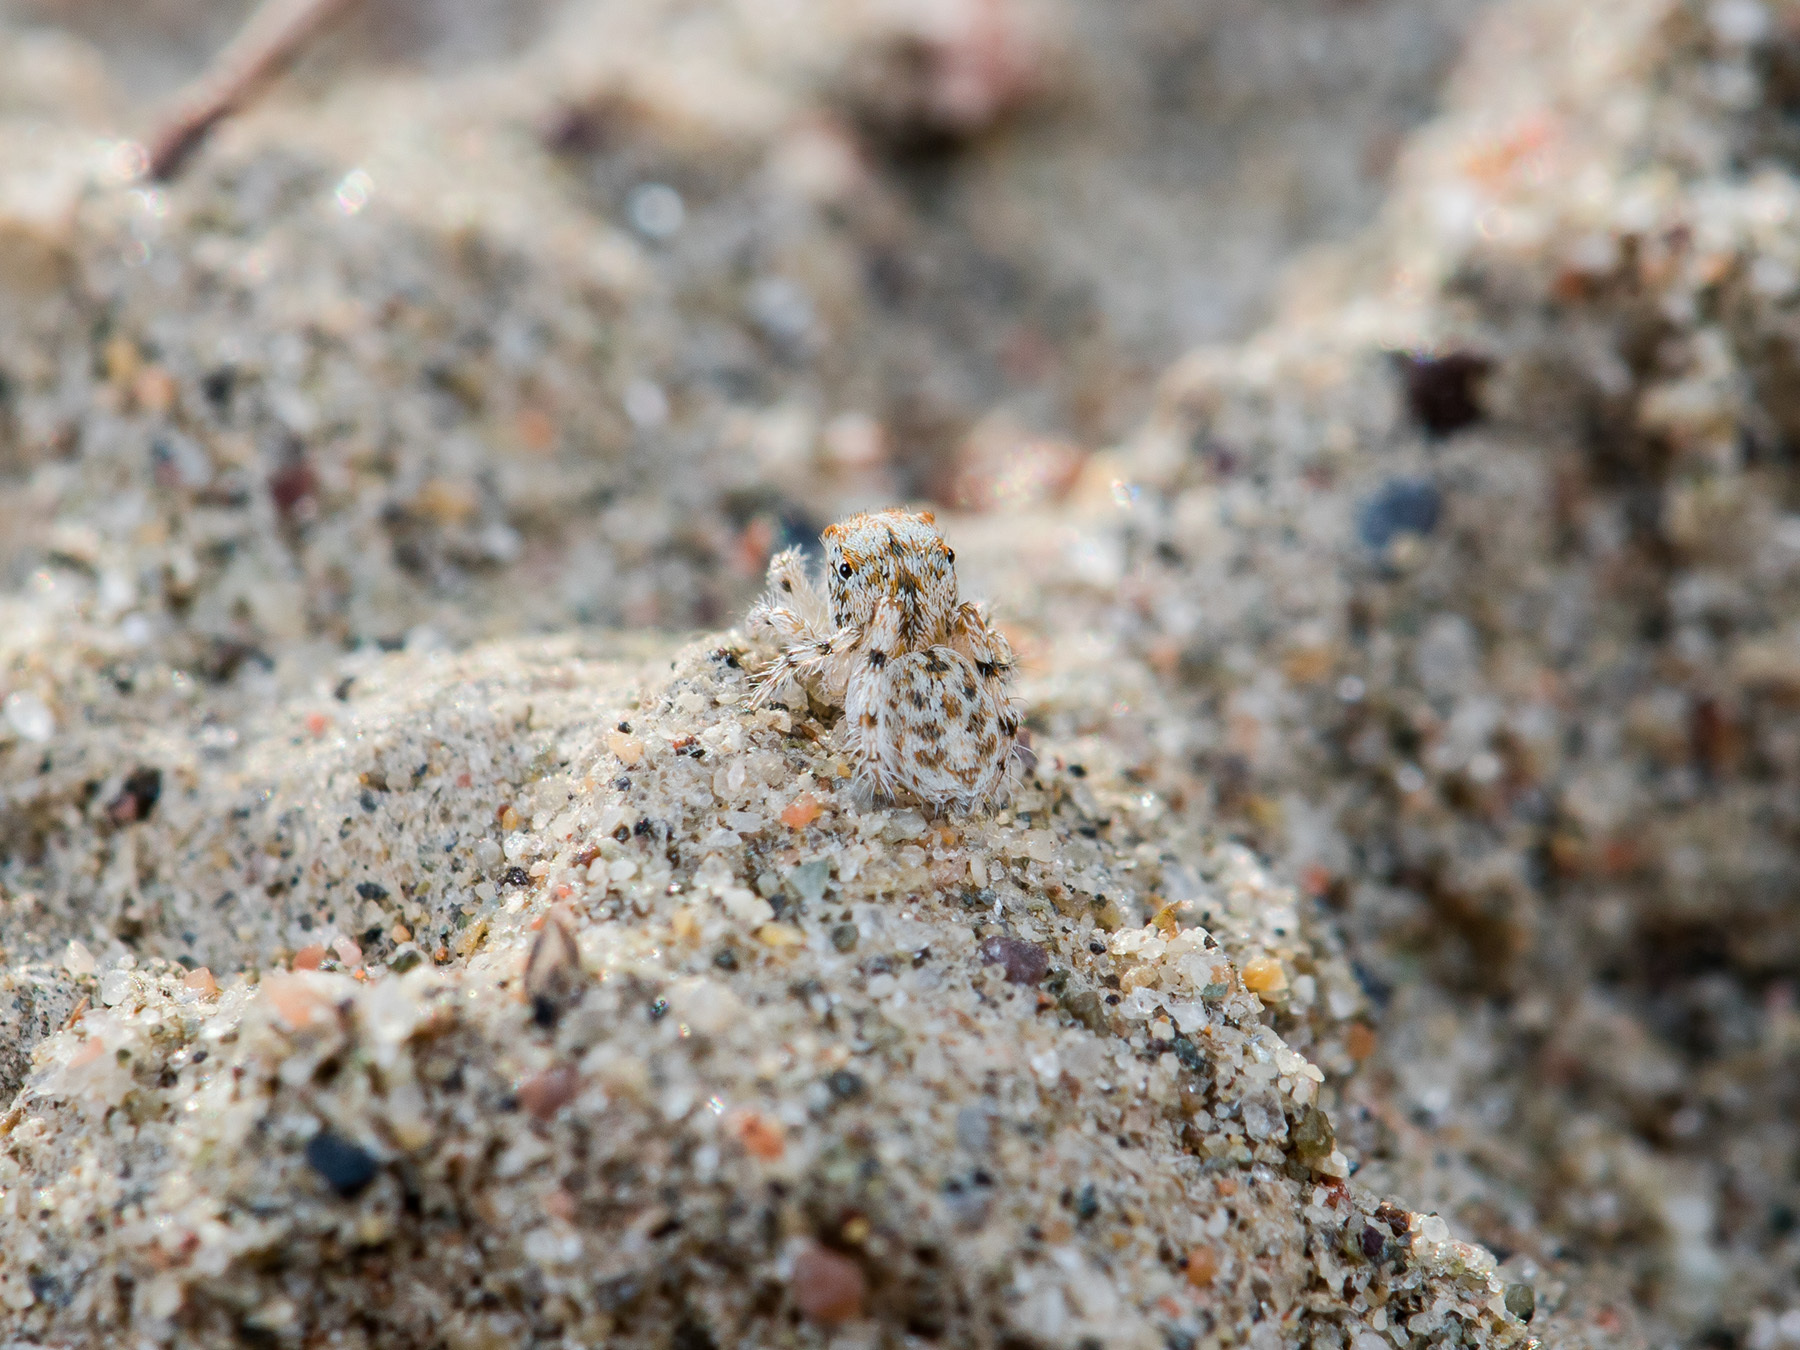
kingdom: Animalia
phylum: Arthropoda
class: Arachnida
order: Araneae
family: Salticidae
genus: Yllenus
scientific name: Yllenus uiguricus
